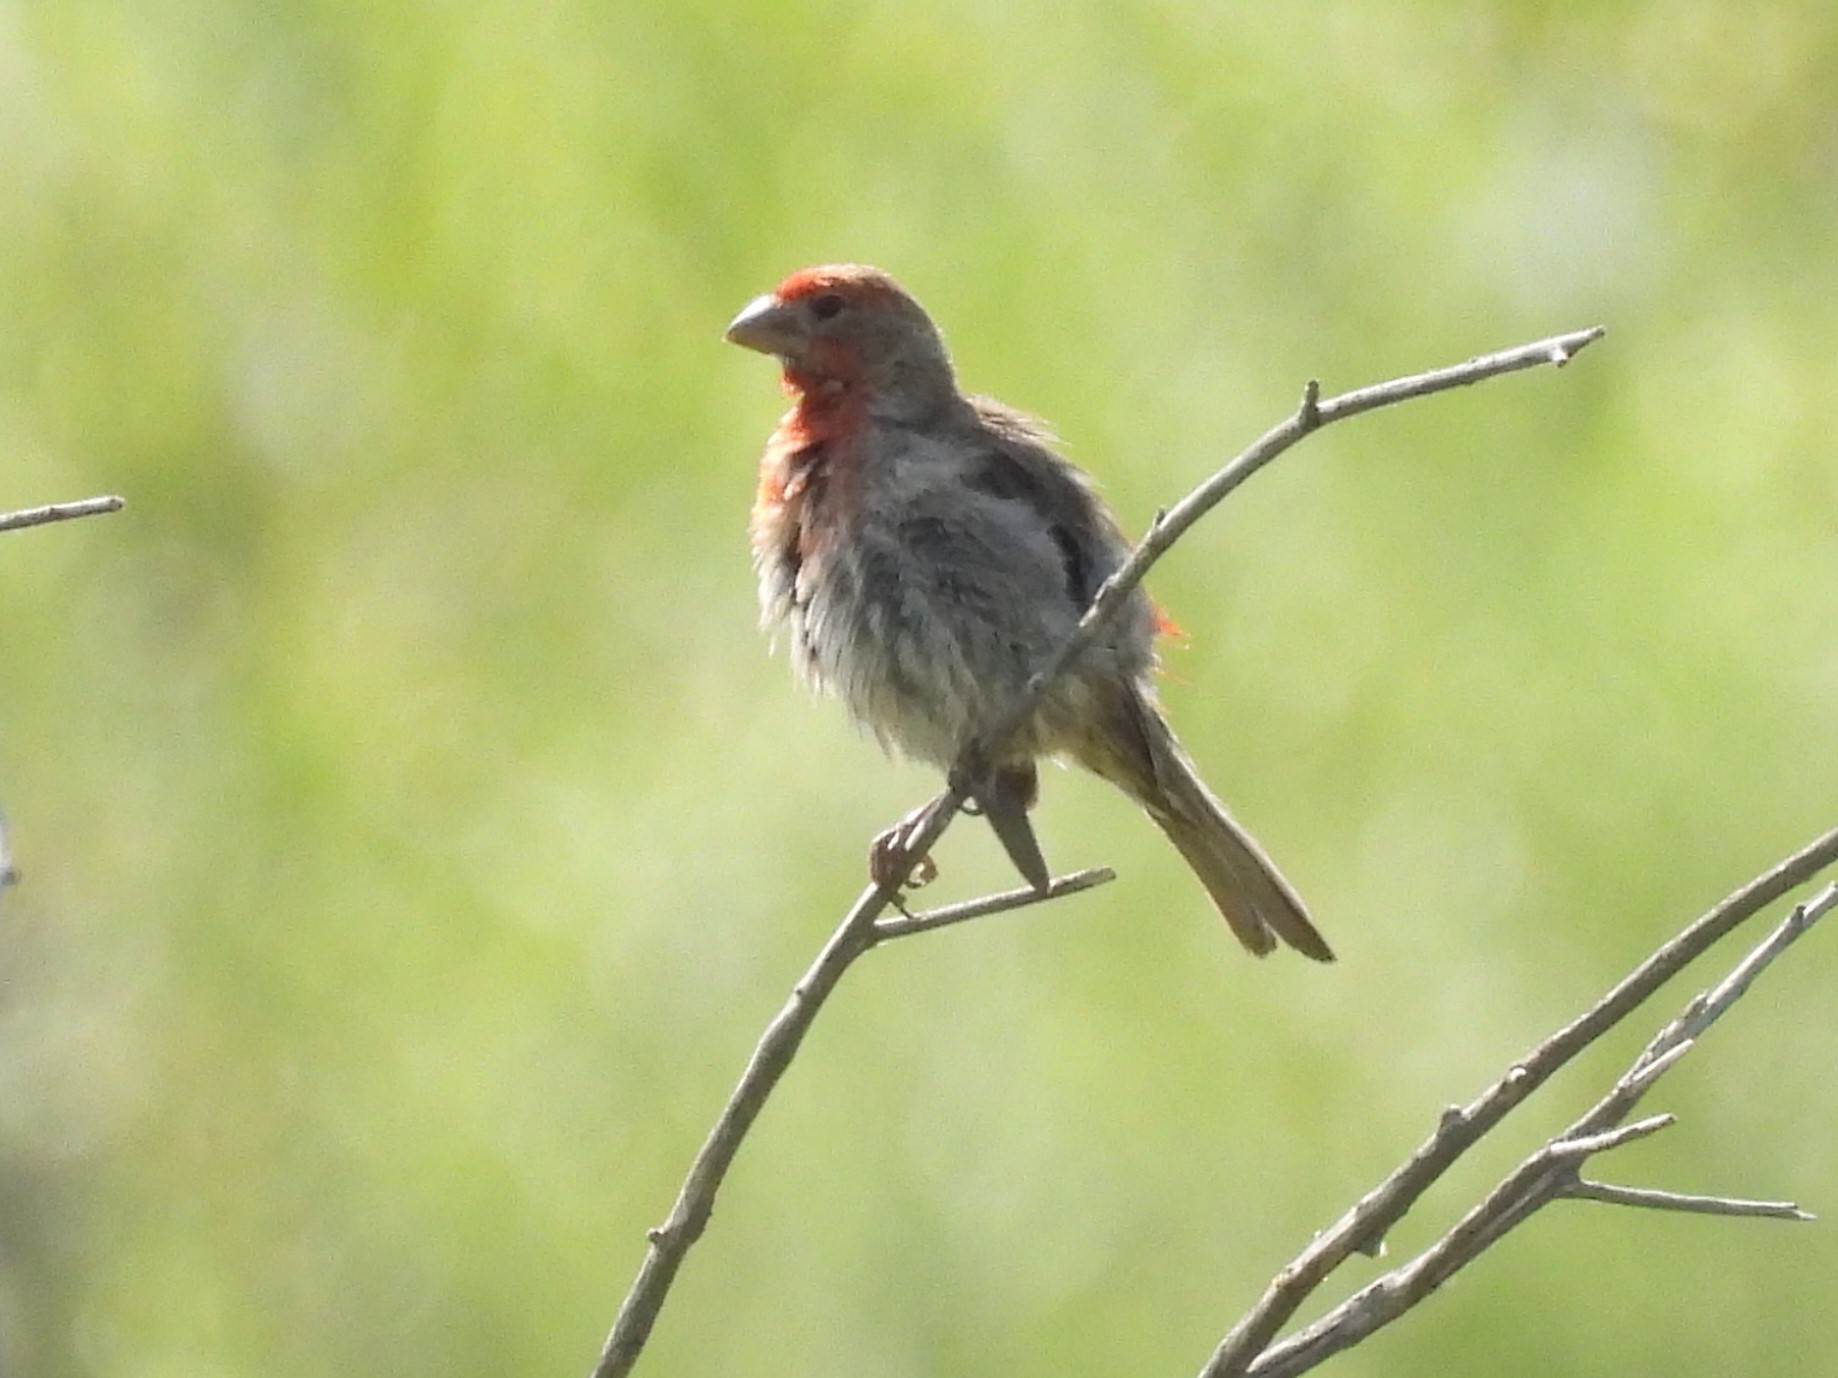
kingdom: Animalia
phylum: Chordata
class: Aves
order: Passeriformes
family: Fringillidae
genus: Haemorhous
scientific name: Haemorhous mexicanus
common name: House finch
